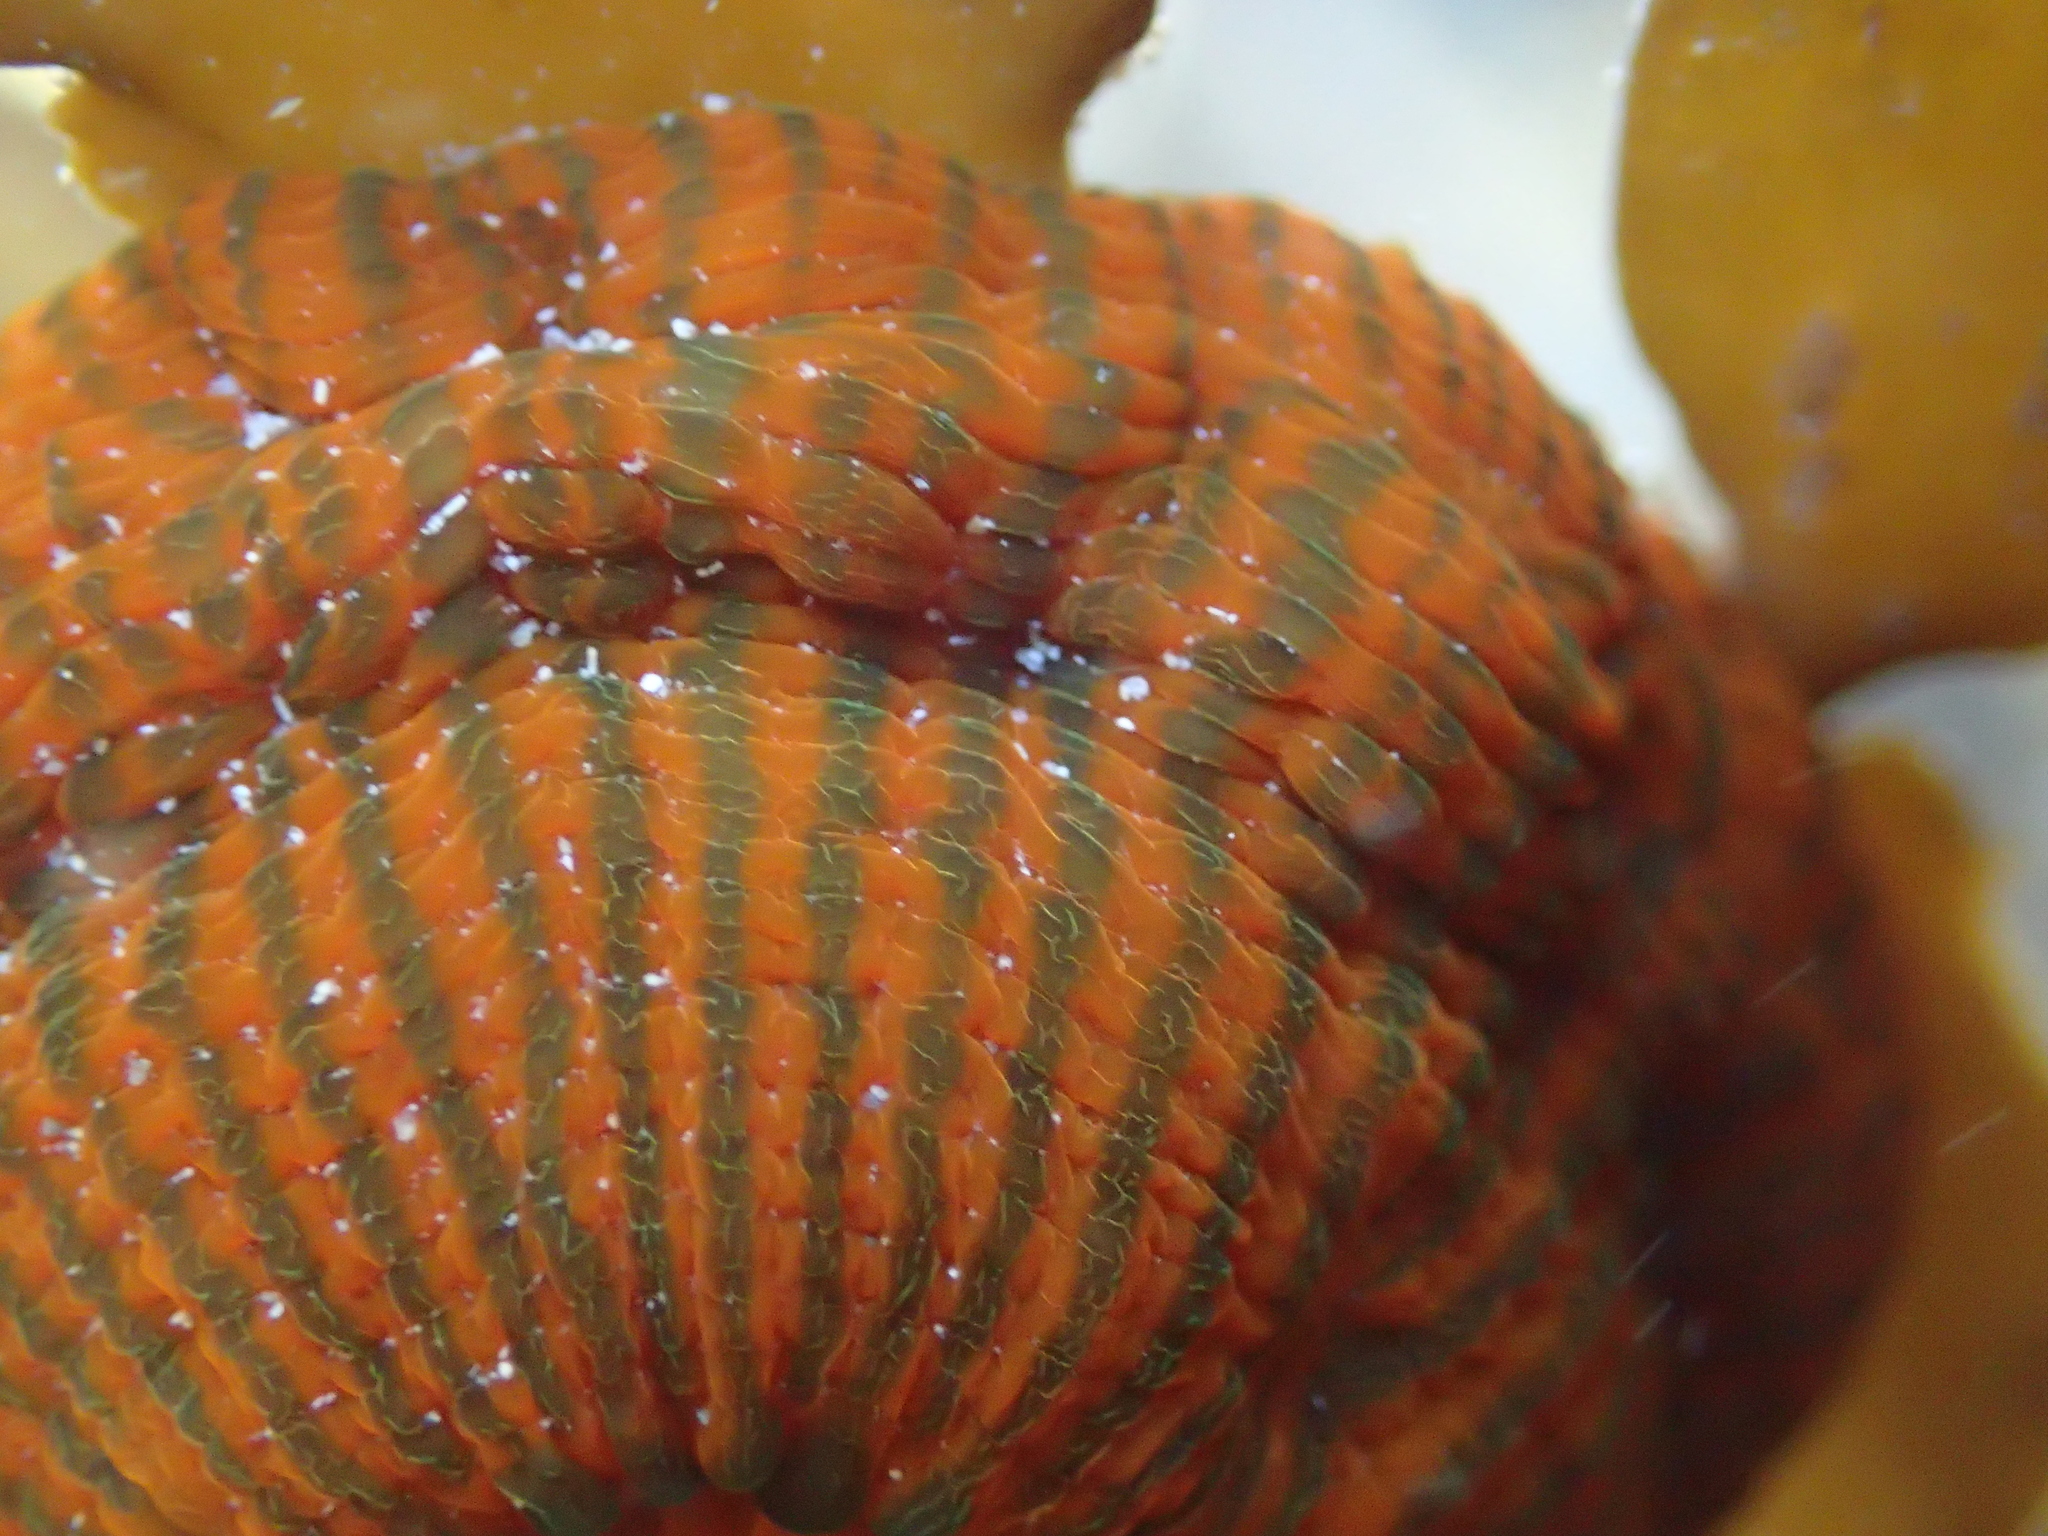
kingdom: Animalia
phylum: Cnidaria
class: Anthozoa
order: Actiniaria
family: Actiniidae
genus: Epiactis
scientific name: Epiactis
